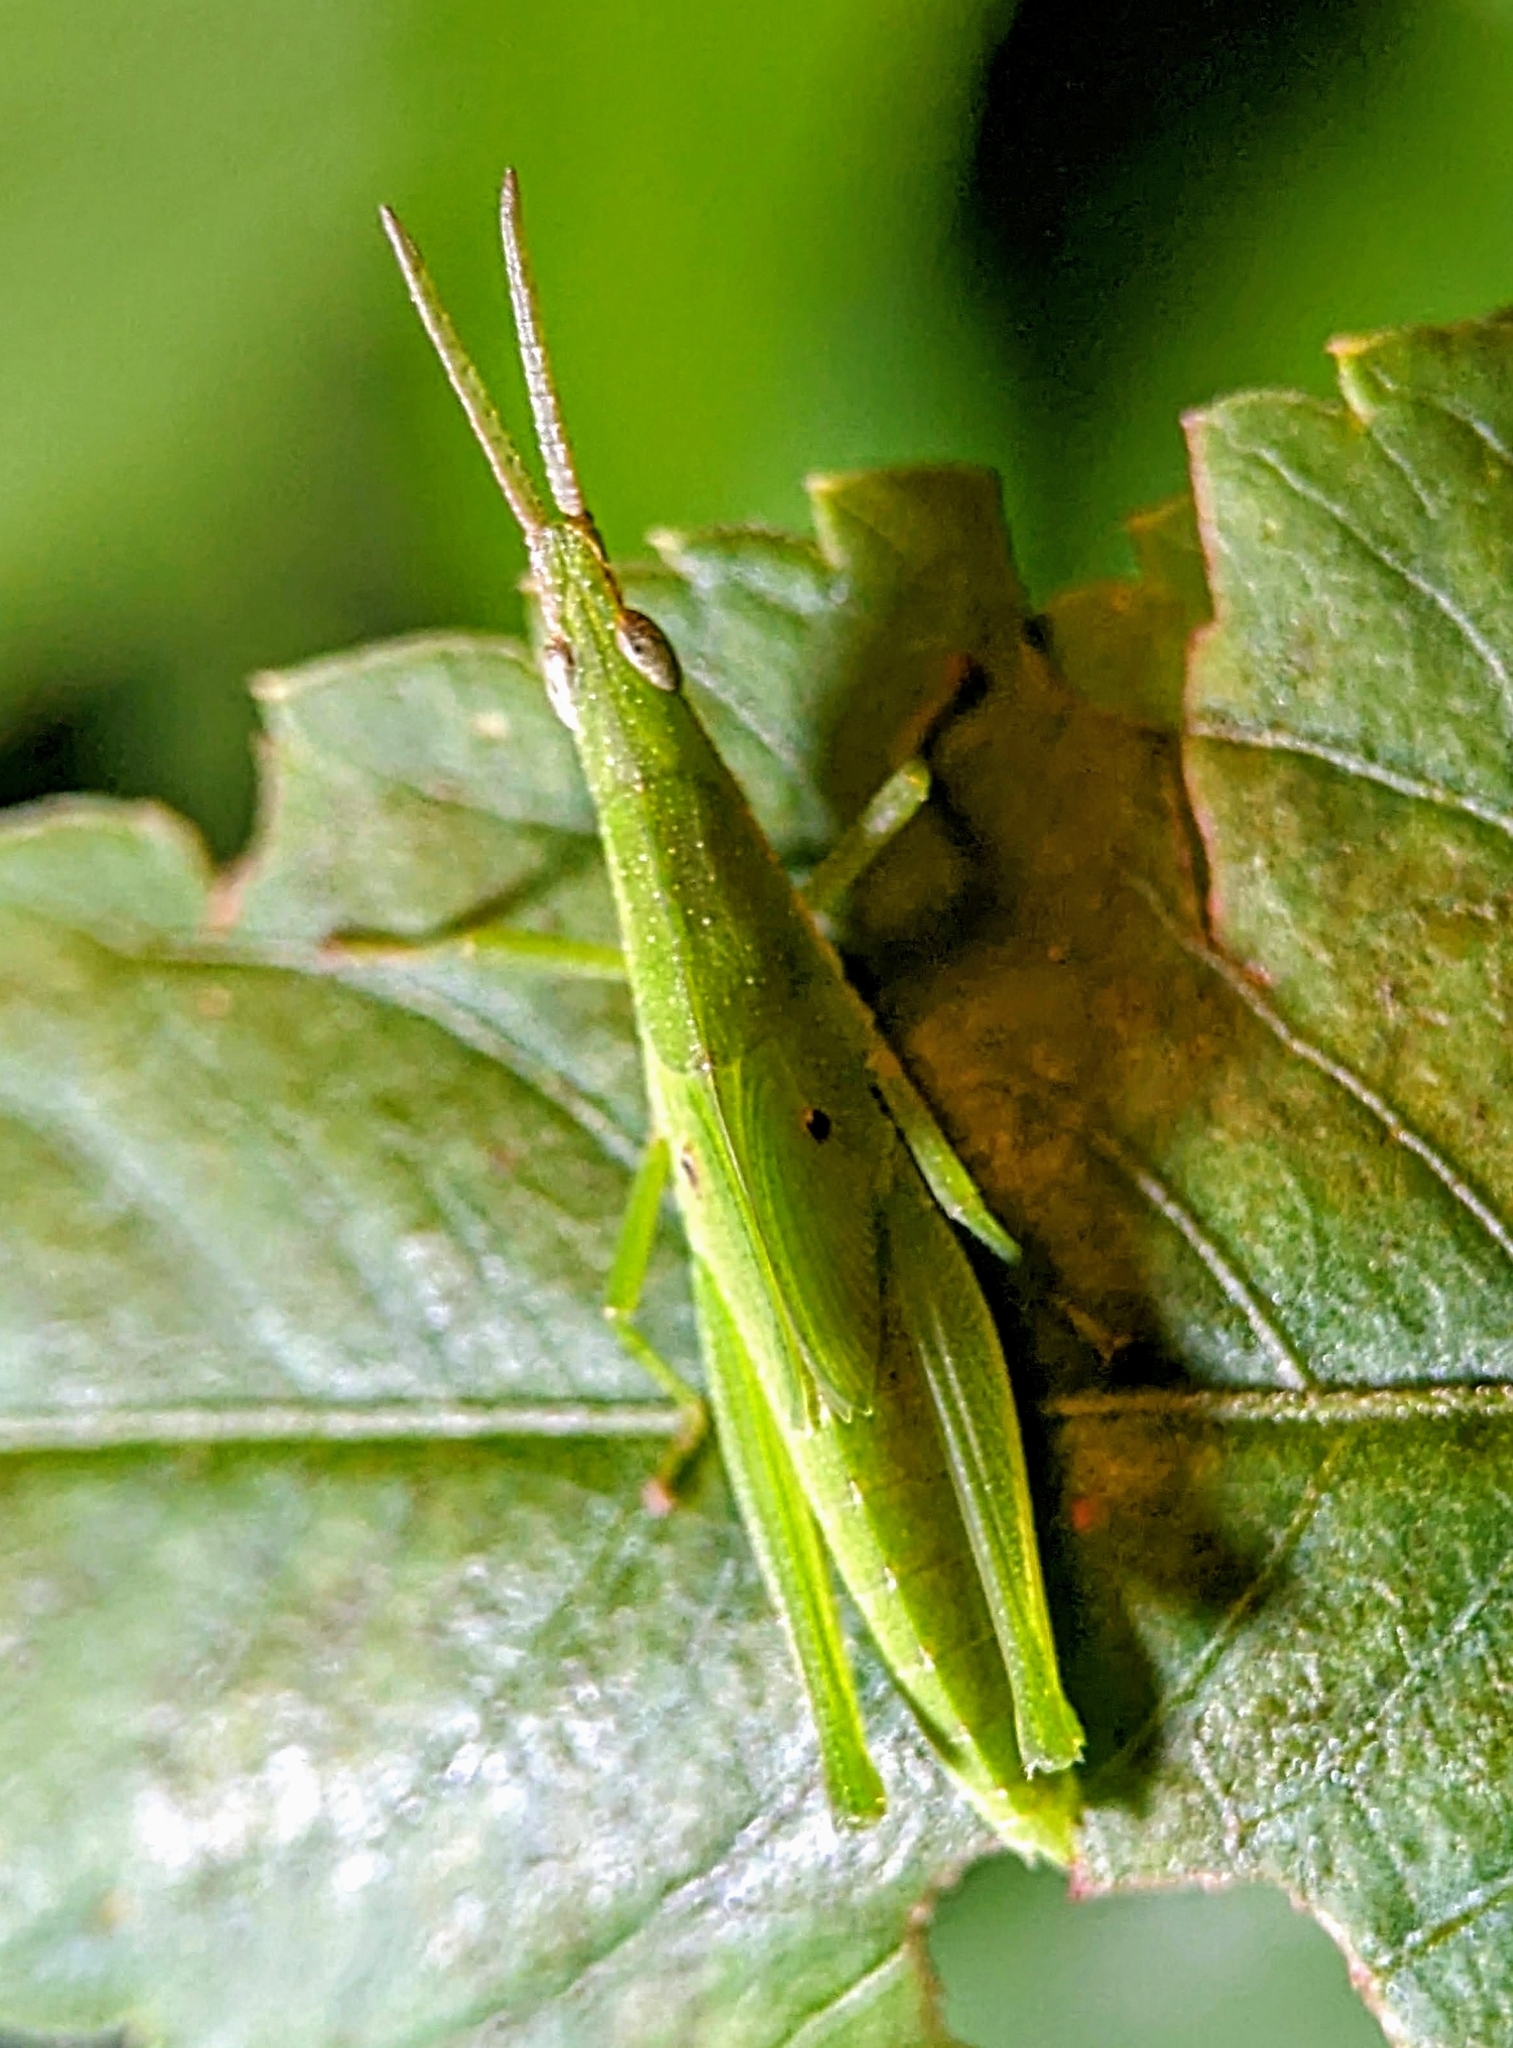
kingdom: Animalia
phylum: Arthropoda
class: Insecta
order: Orthoptera
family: Pyrgomorphidae
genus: Atractomorpha
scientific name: Atractomorpha psittacina
